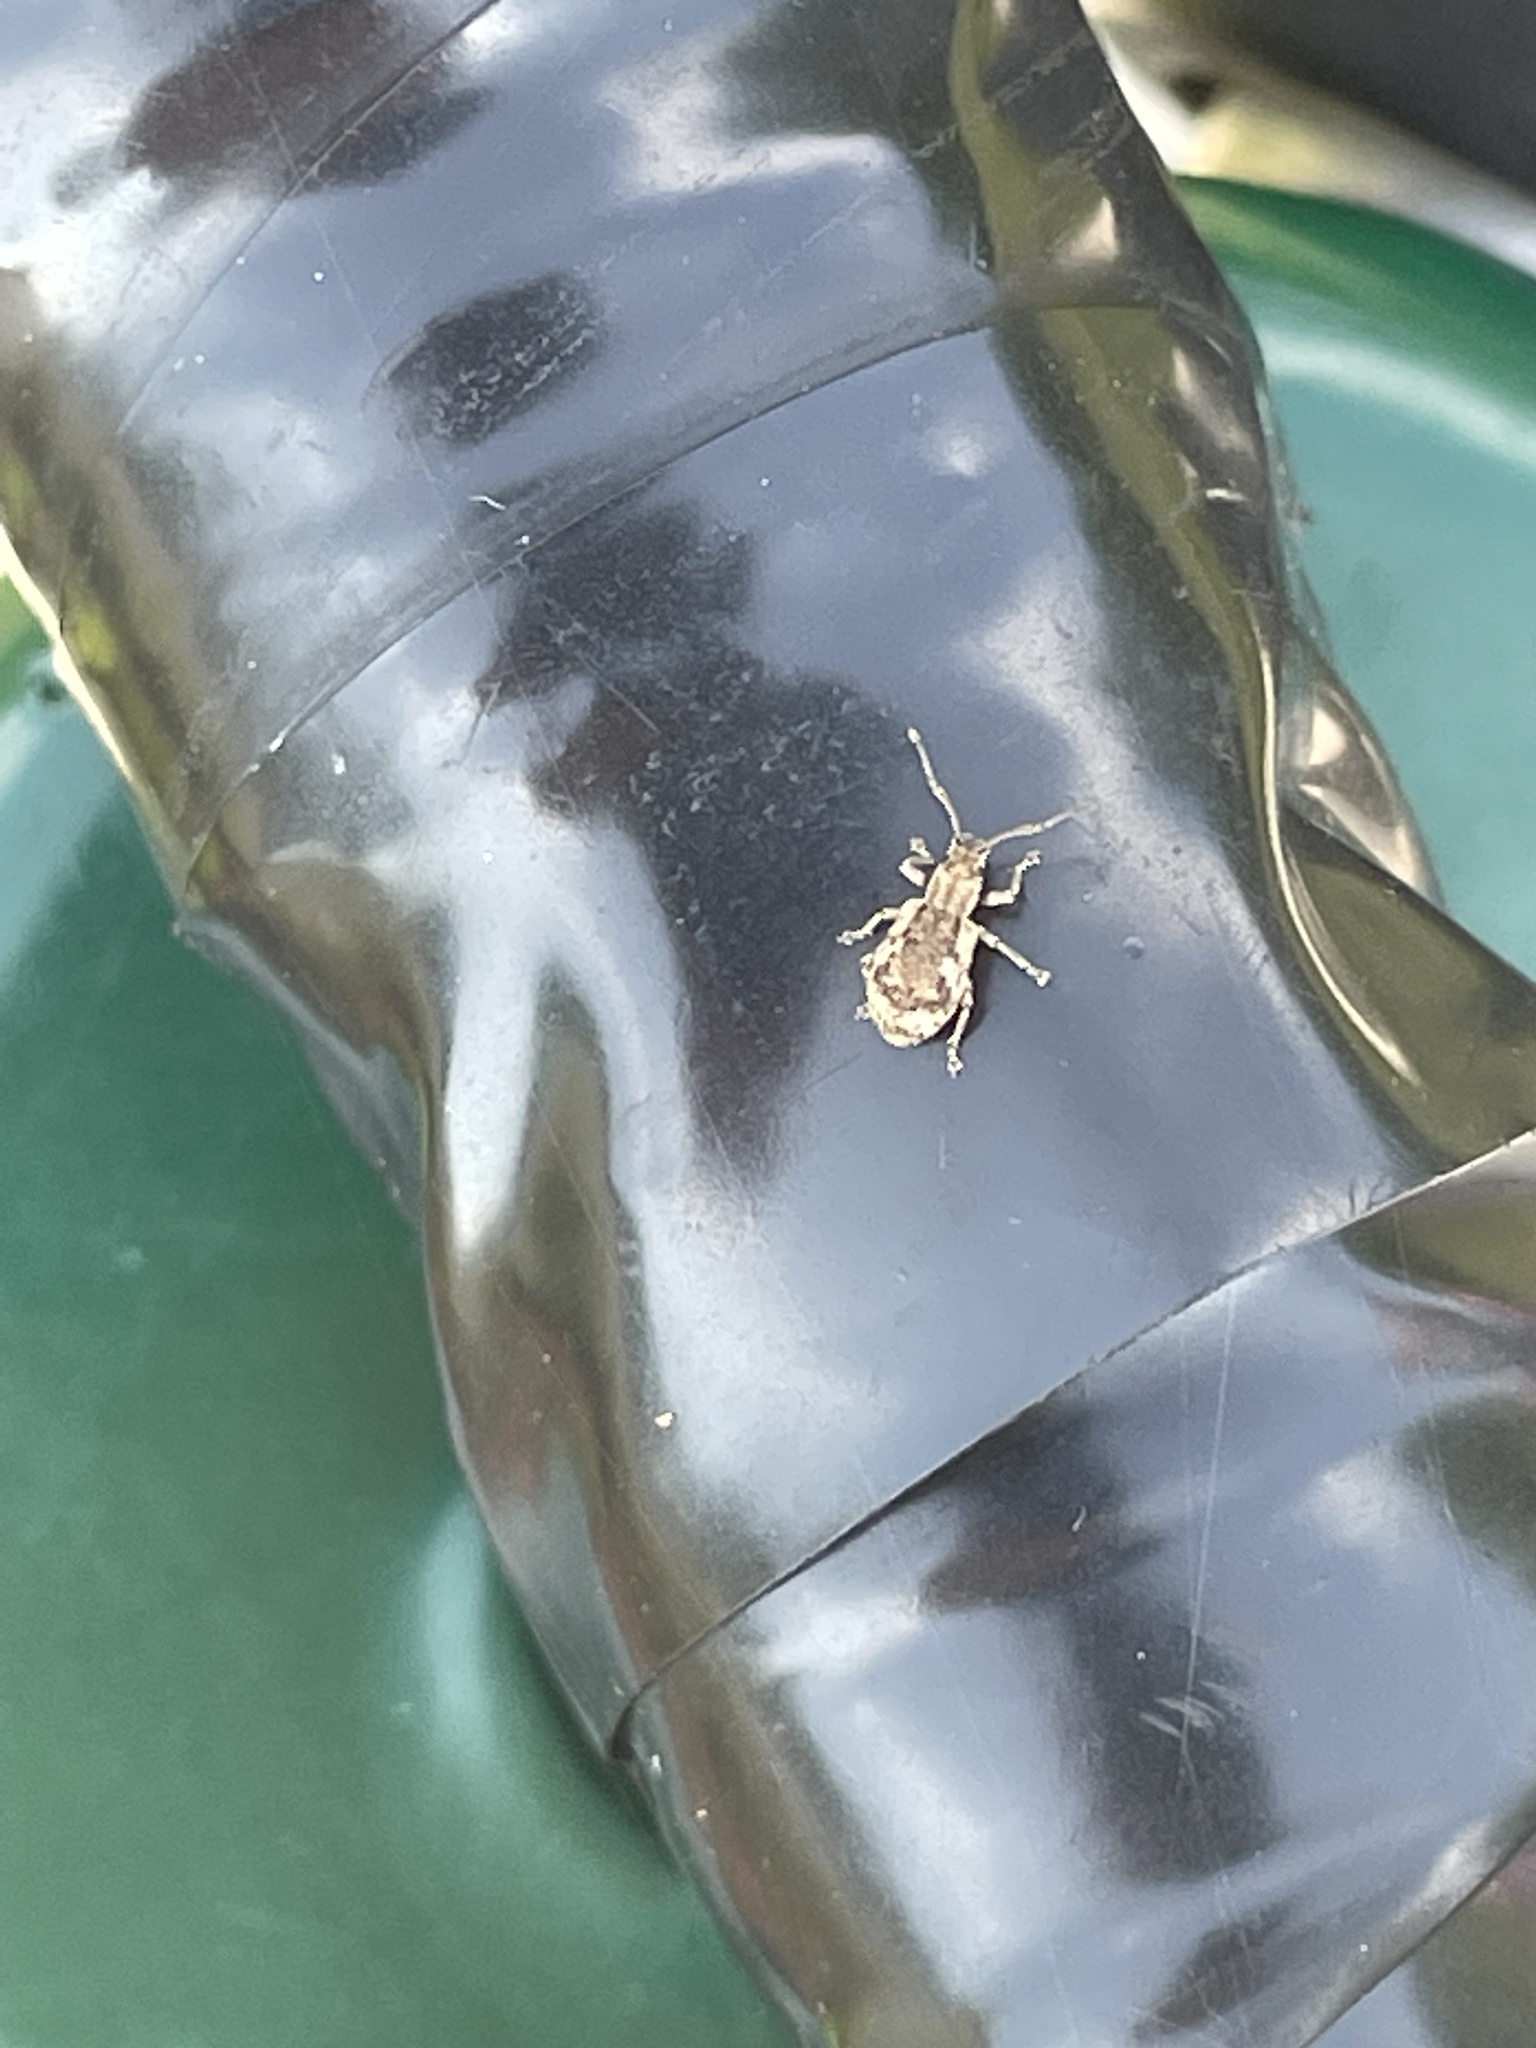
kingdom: Animalia
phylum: Arthropoda
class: Insecta
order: Coleoptera
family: Curculionidae
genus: Pseudoedophrys
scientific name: Pseudoedophrys hilleri
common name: Weevil
